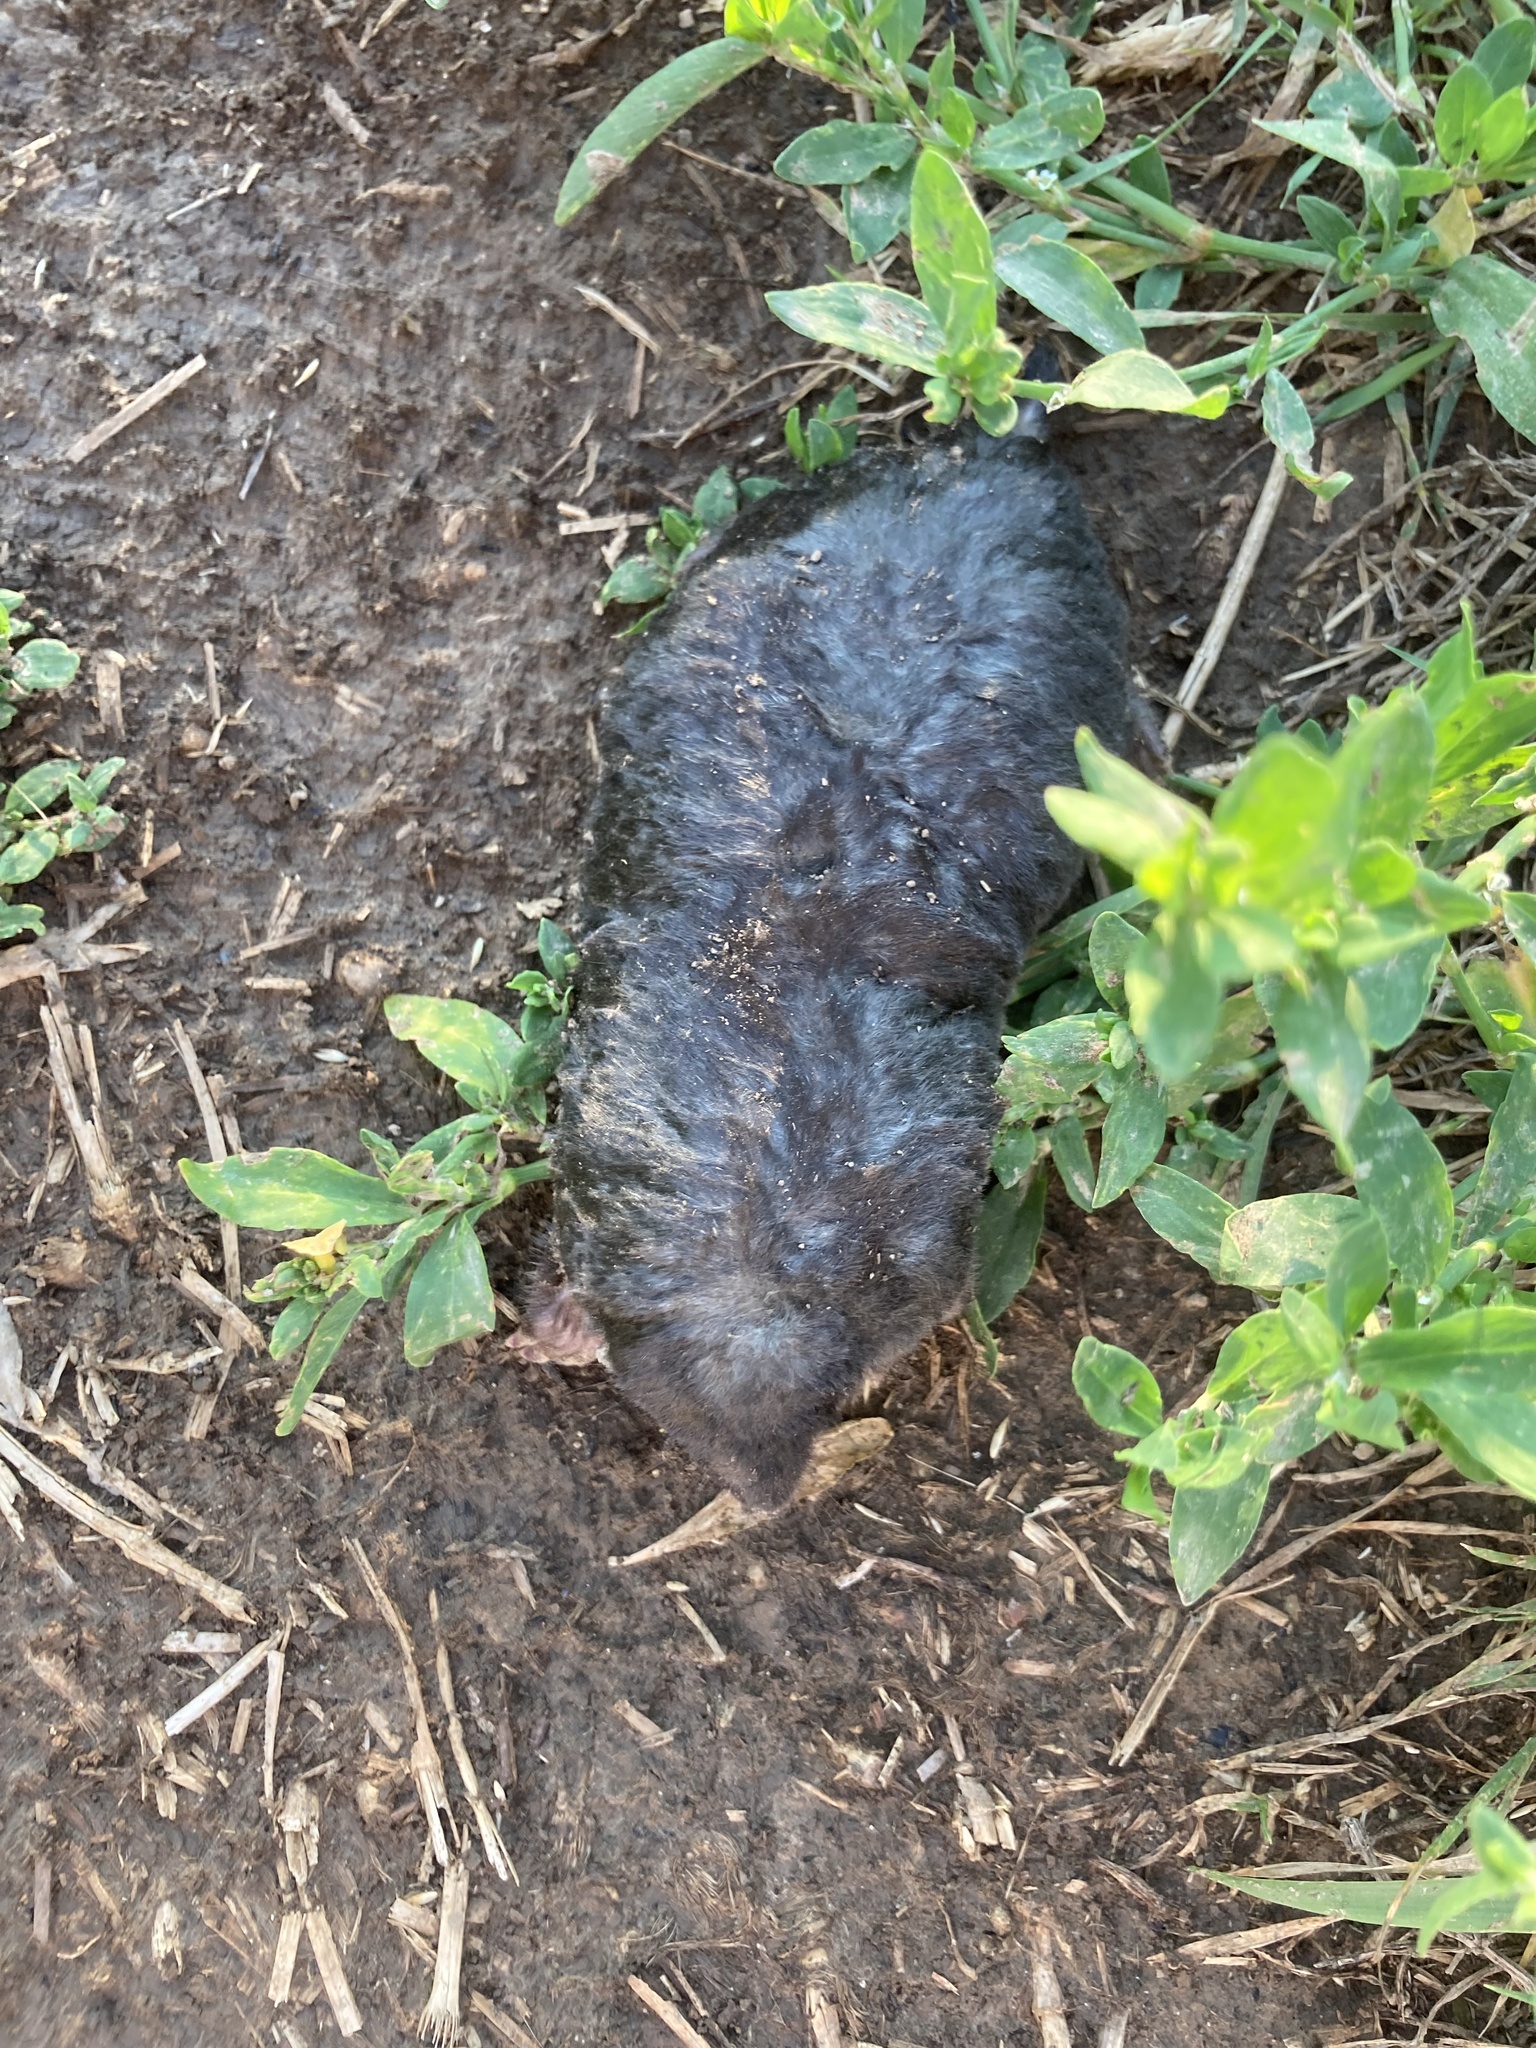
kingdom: Animalia
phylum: Chordata
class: Mammalia
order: Soricomorpha
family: Talpidae
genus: Talpa
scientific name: Talpa europaea
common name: European mole
